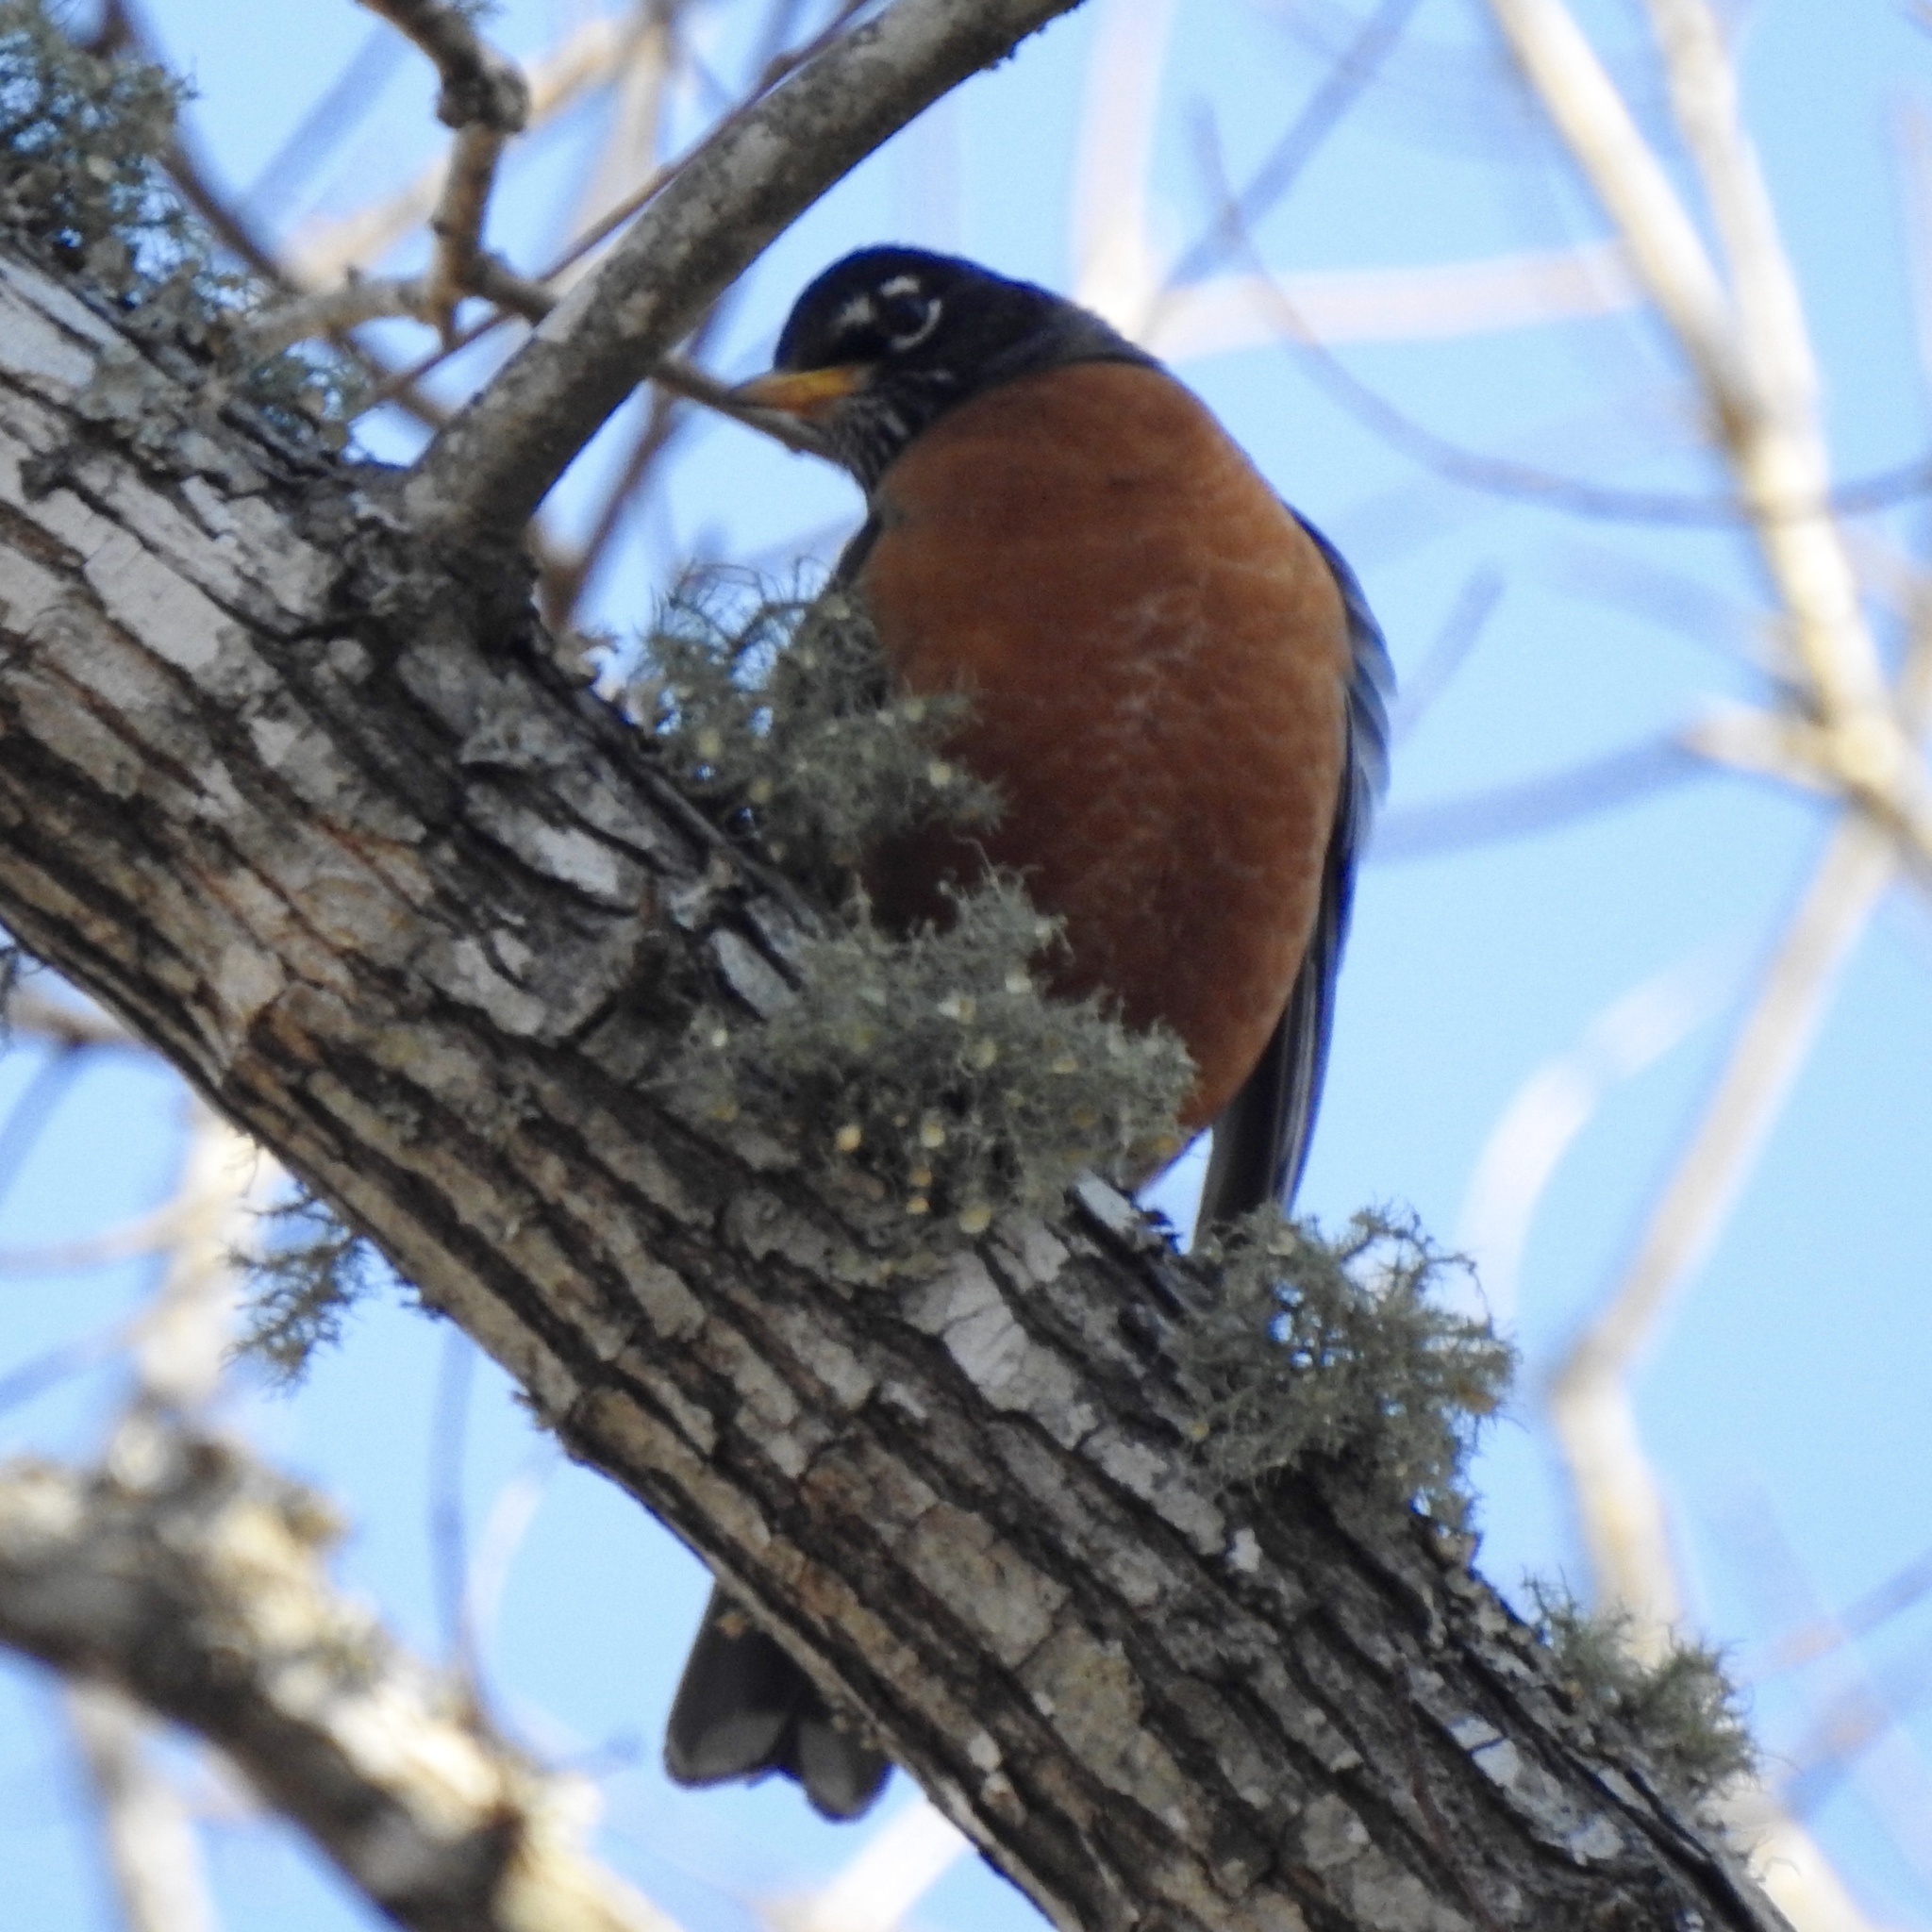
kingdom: Animalia
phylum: Chordata
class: Aves
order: Passeriformes
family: Turdidae
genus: Turdus
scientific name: Turdus migratorius
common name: American robin
